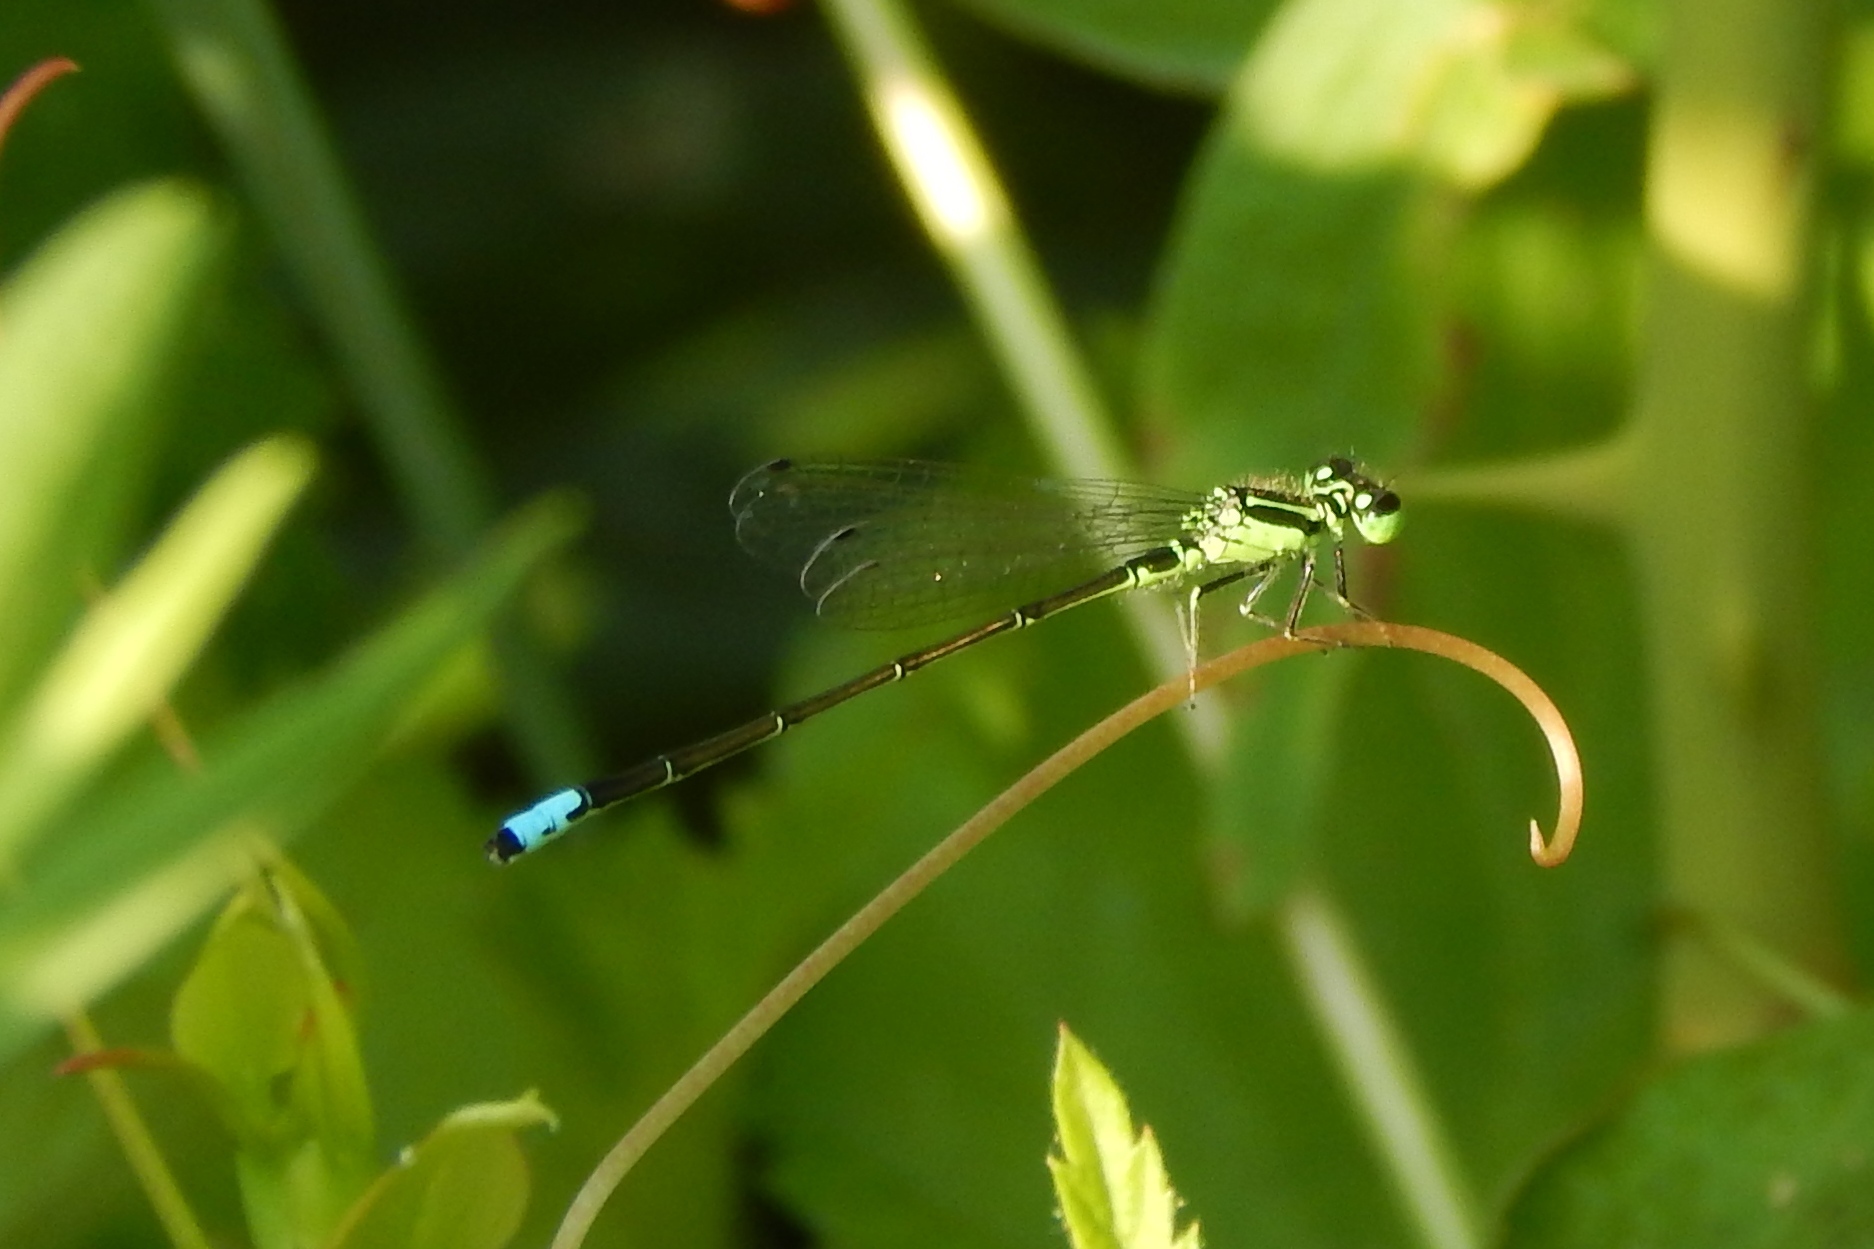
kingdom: Animalia
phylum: Arthropoda
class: Insecta
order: Odonata
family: Coenagrionidae
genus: Ischnura
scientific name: Ischnura verticalis
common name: Eastern forktail
